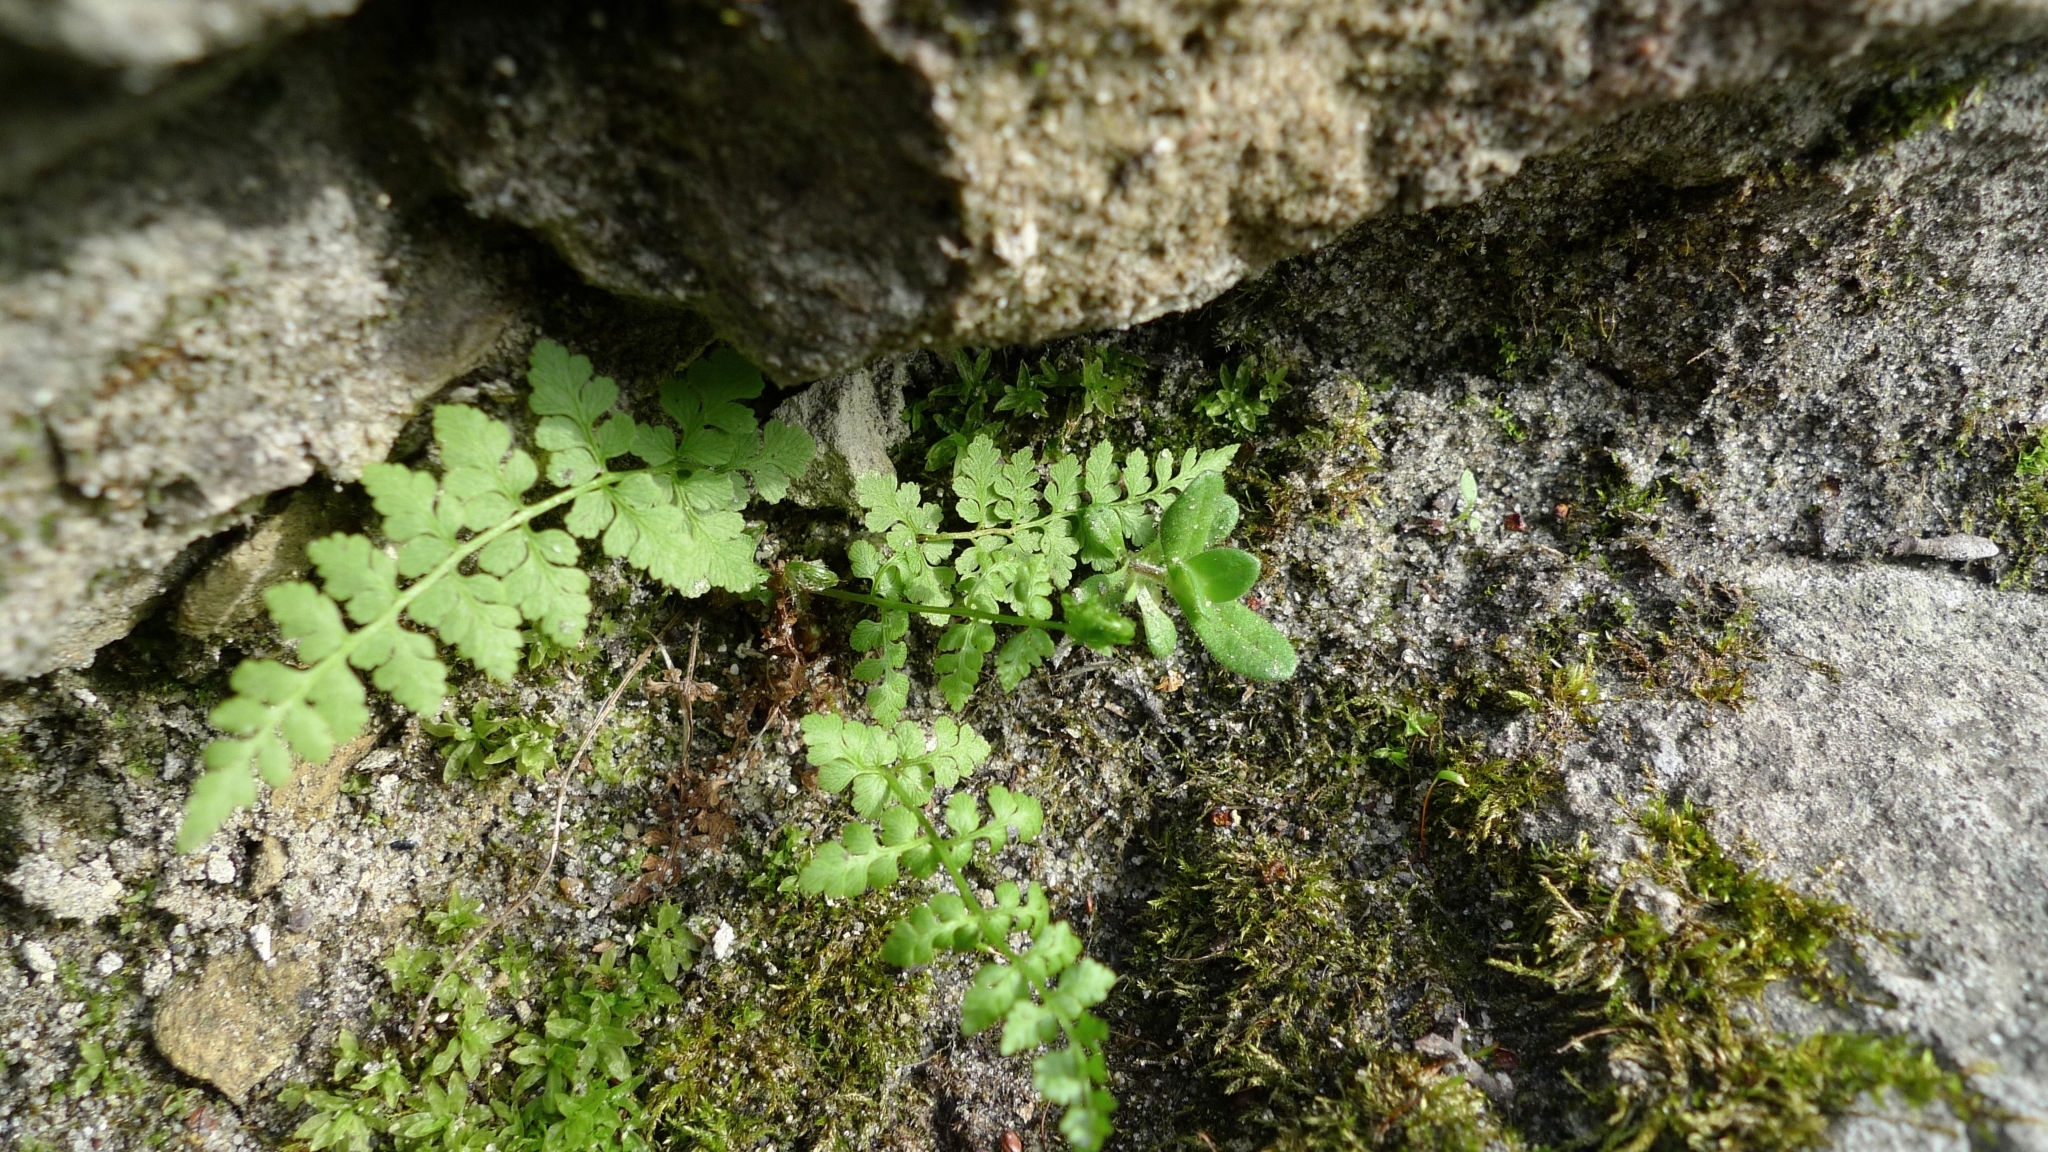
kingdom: Plantae
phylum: Tracheophyta
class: Polypodiopsida
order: Polypodiales
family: Cystopteridaceae
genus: Cystopteris
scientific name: Cystopteris fragilis
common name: Brittle bladder fern
